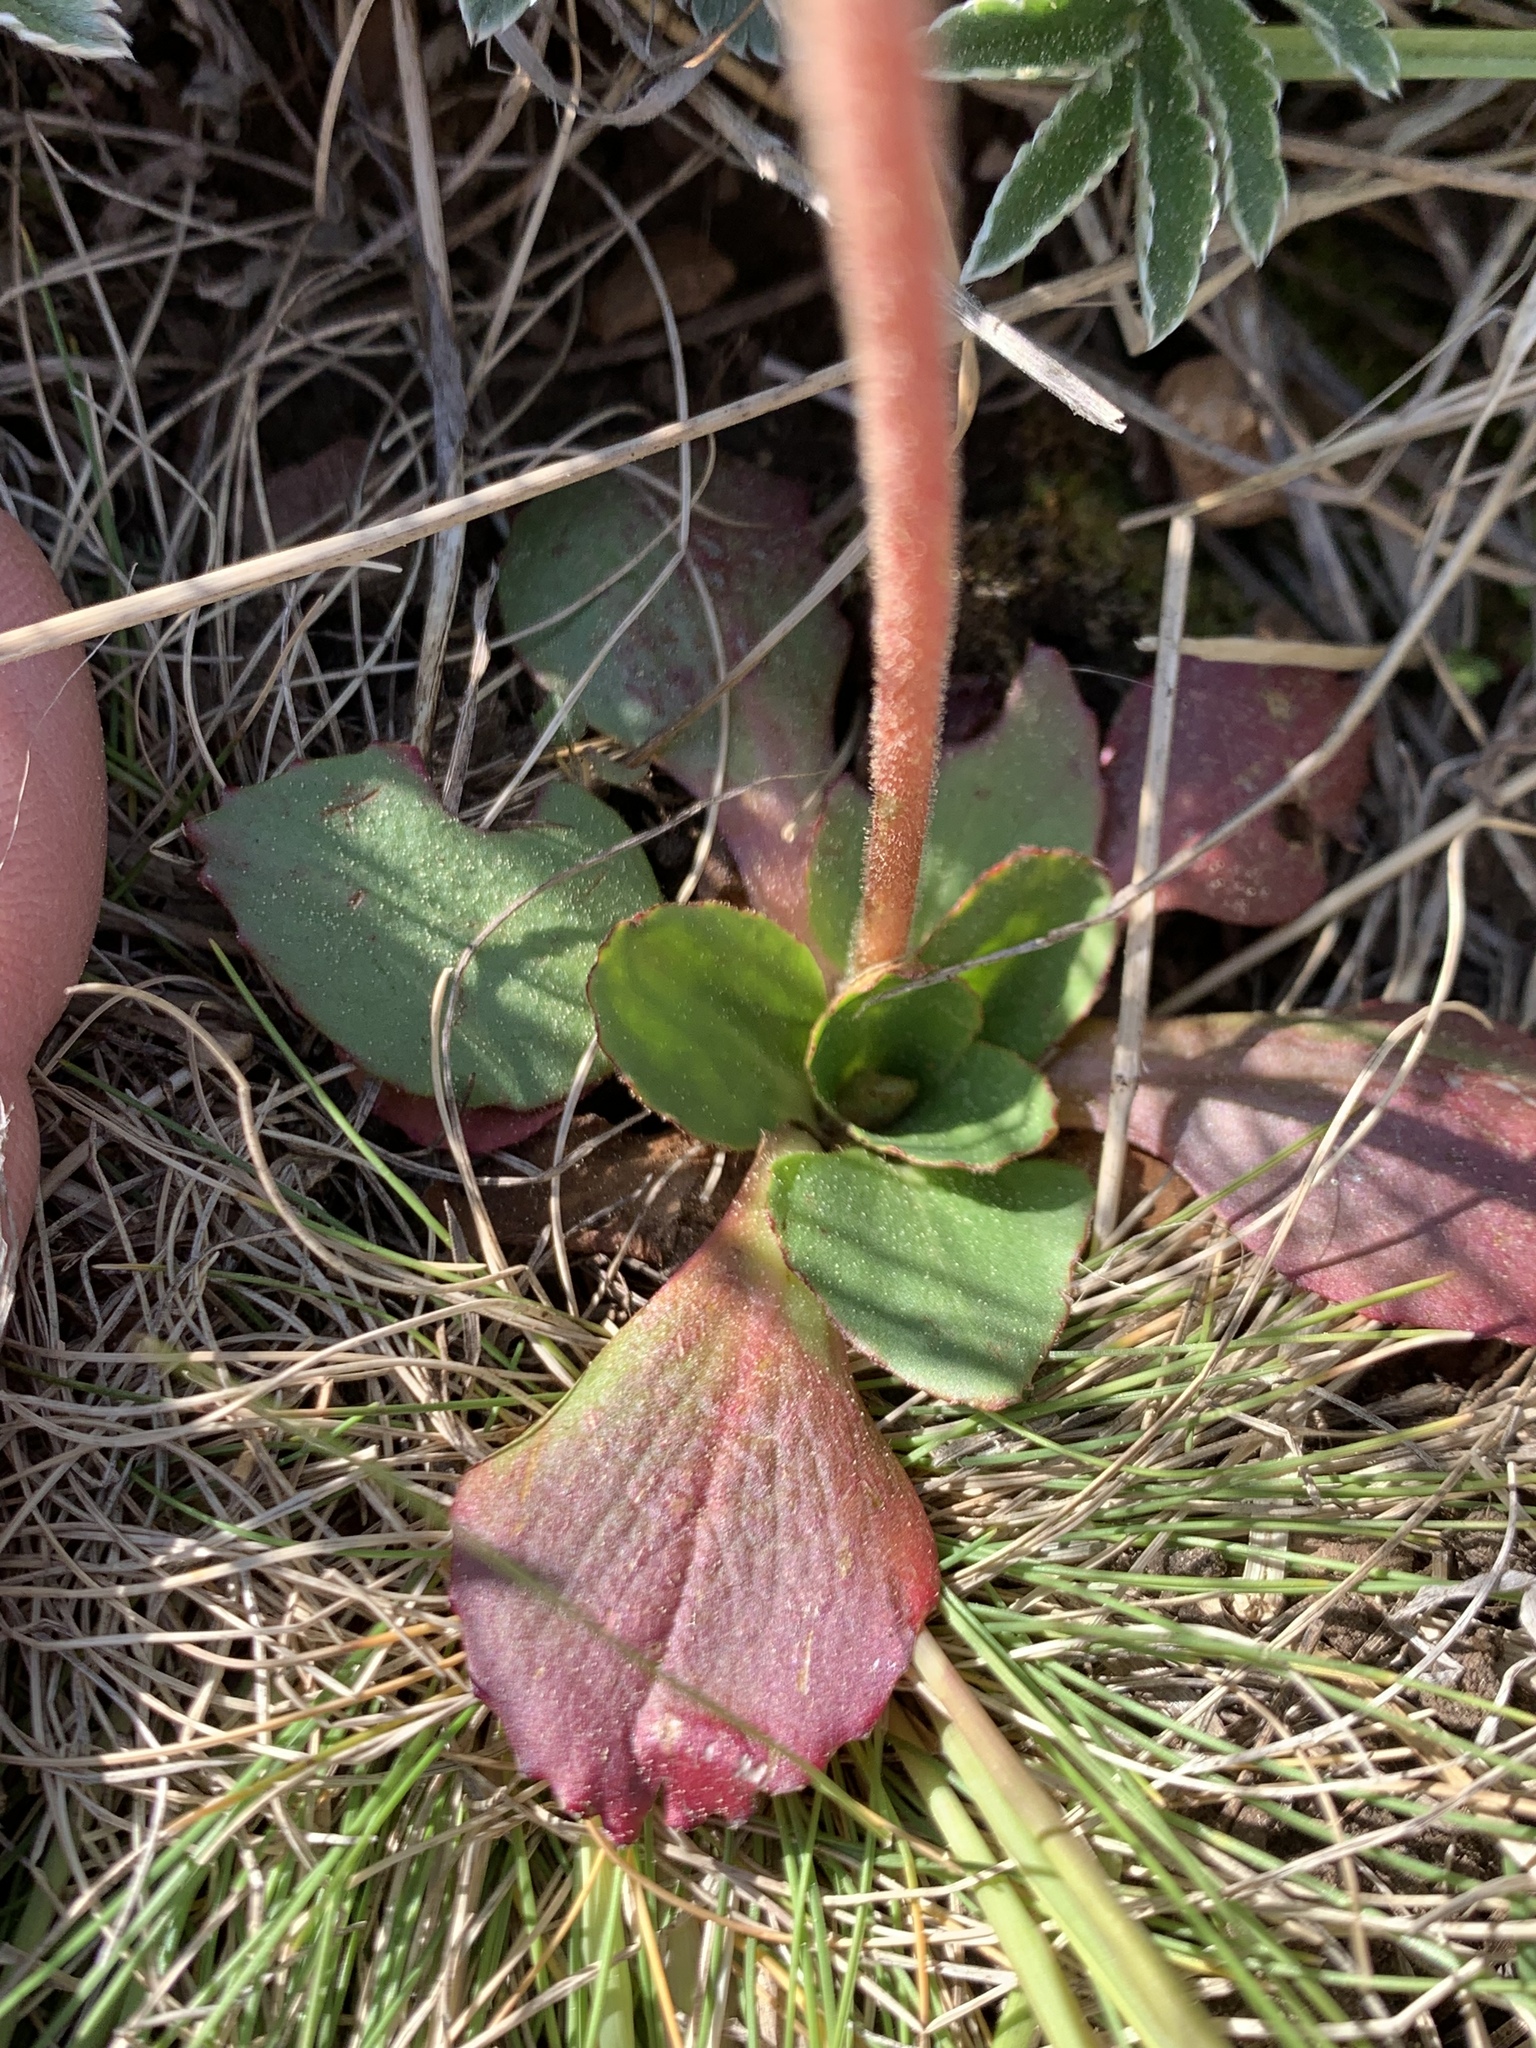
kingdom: Plantae
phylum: Tracheophyta
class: Magnoliopsida
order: Saxifragales
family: Saxifragaceae
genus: Micranthes
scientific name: Micranthes rhomboidea
